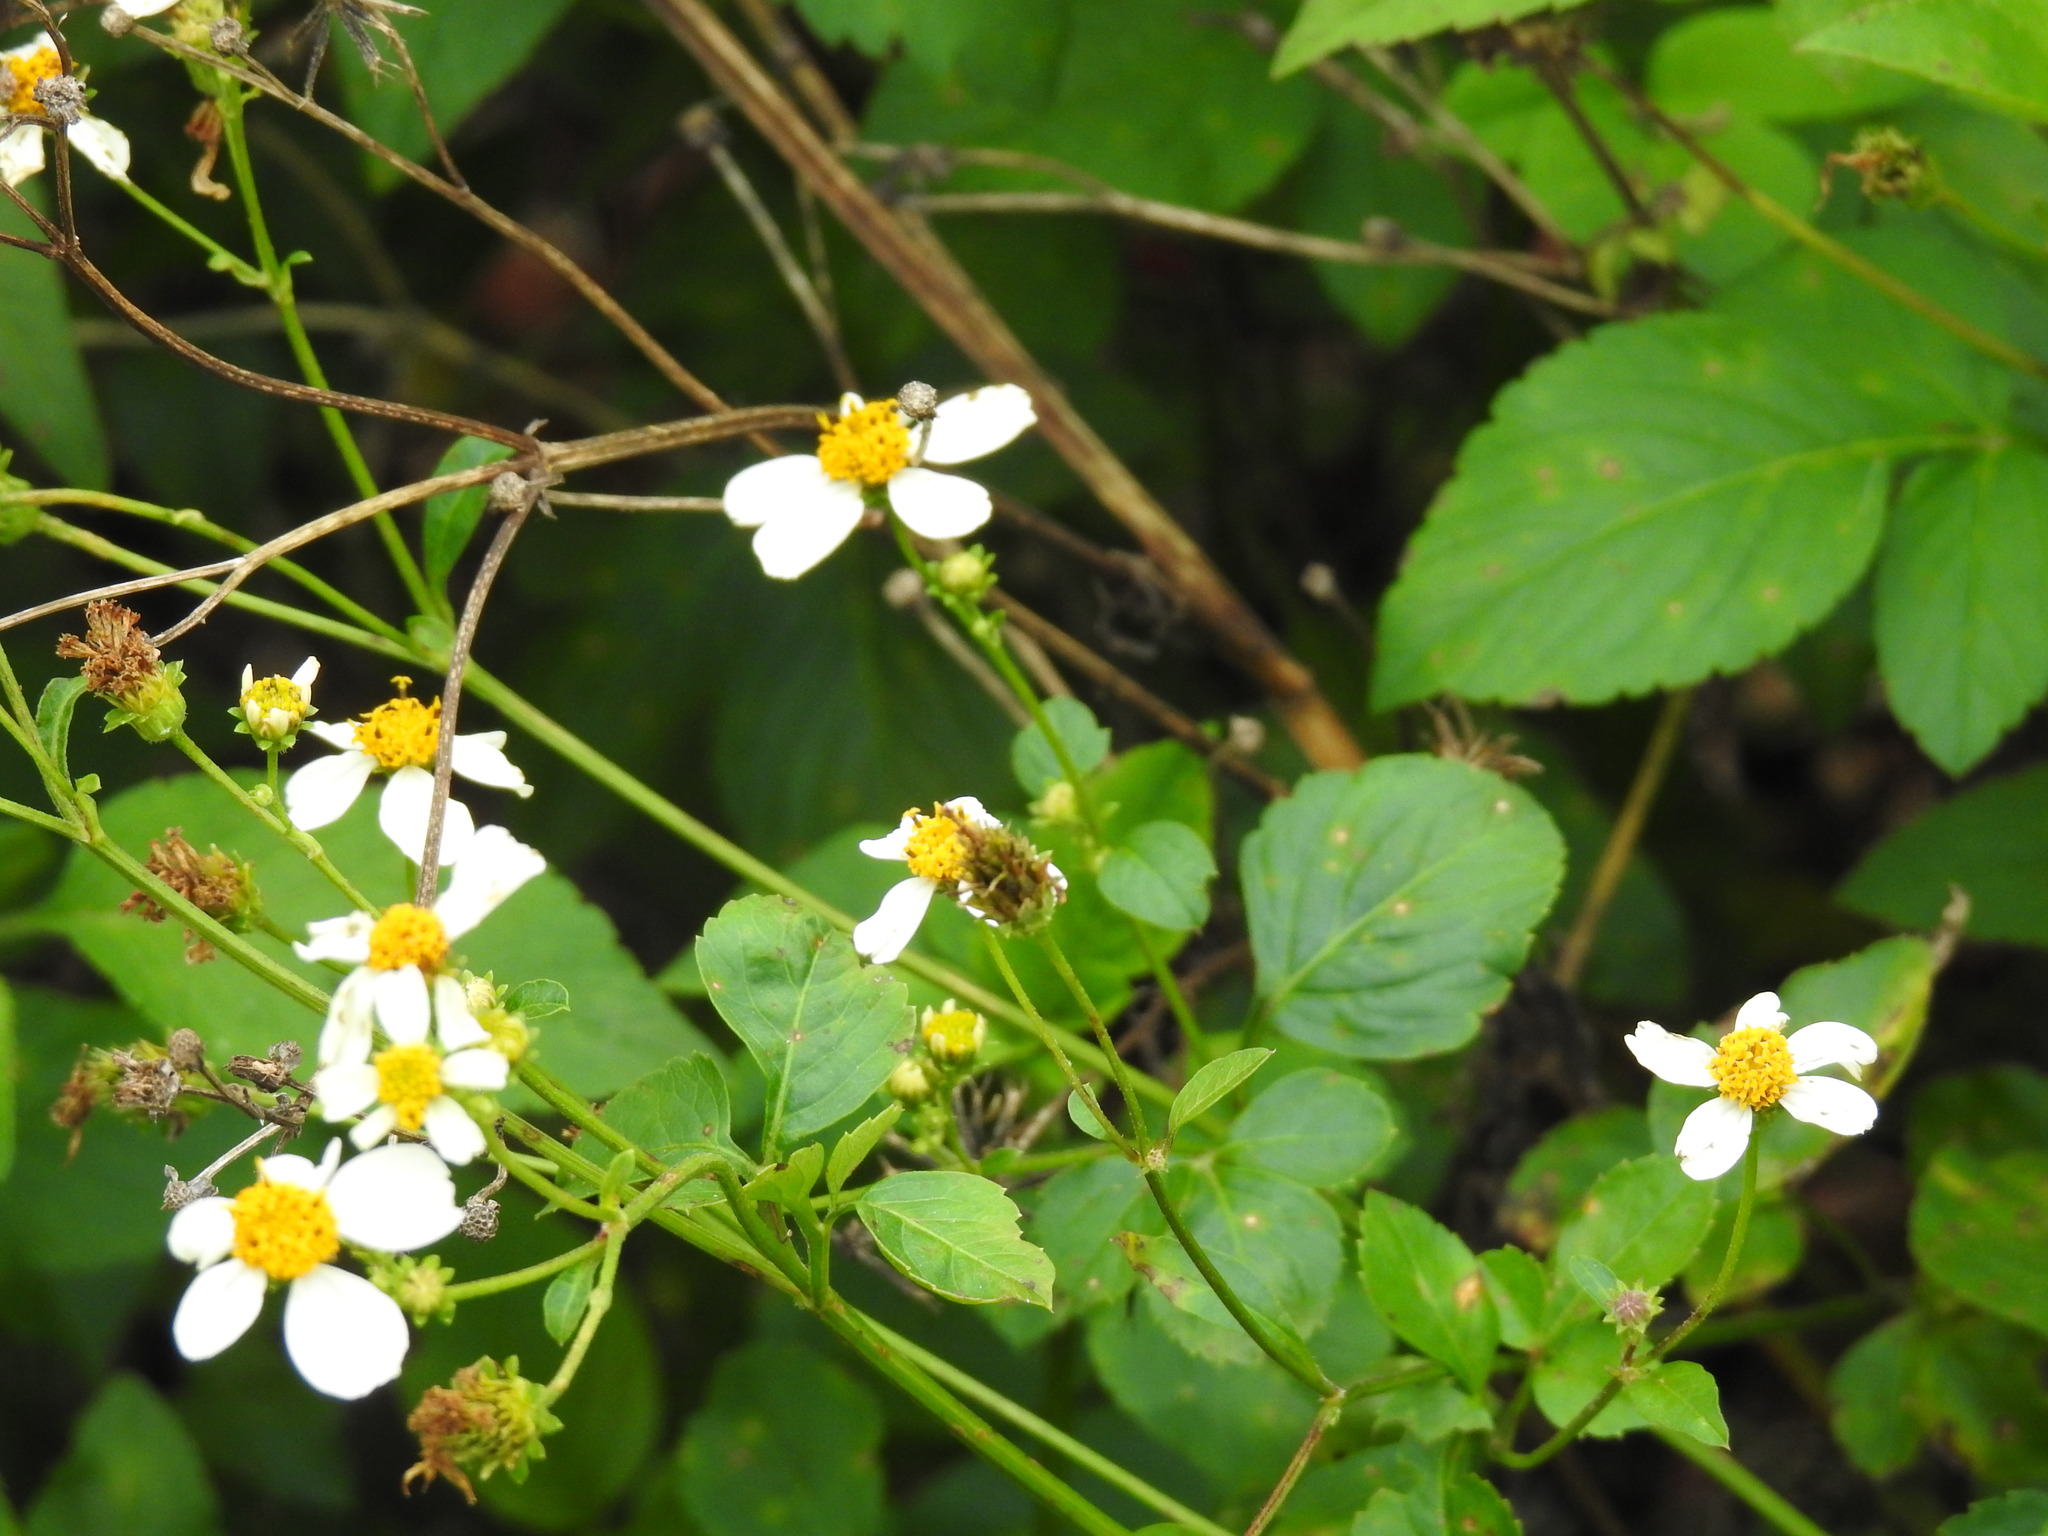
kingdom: Plantae
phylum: Tracheophyta
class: Magnoliopsida
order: Asterales
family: Asteraceae
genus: Bidens
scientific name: Bidens alba
